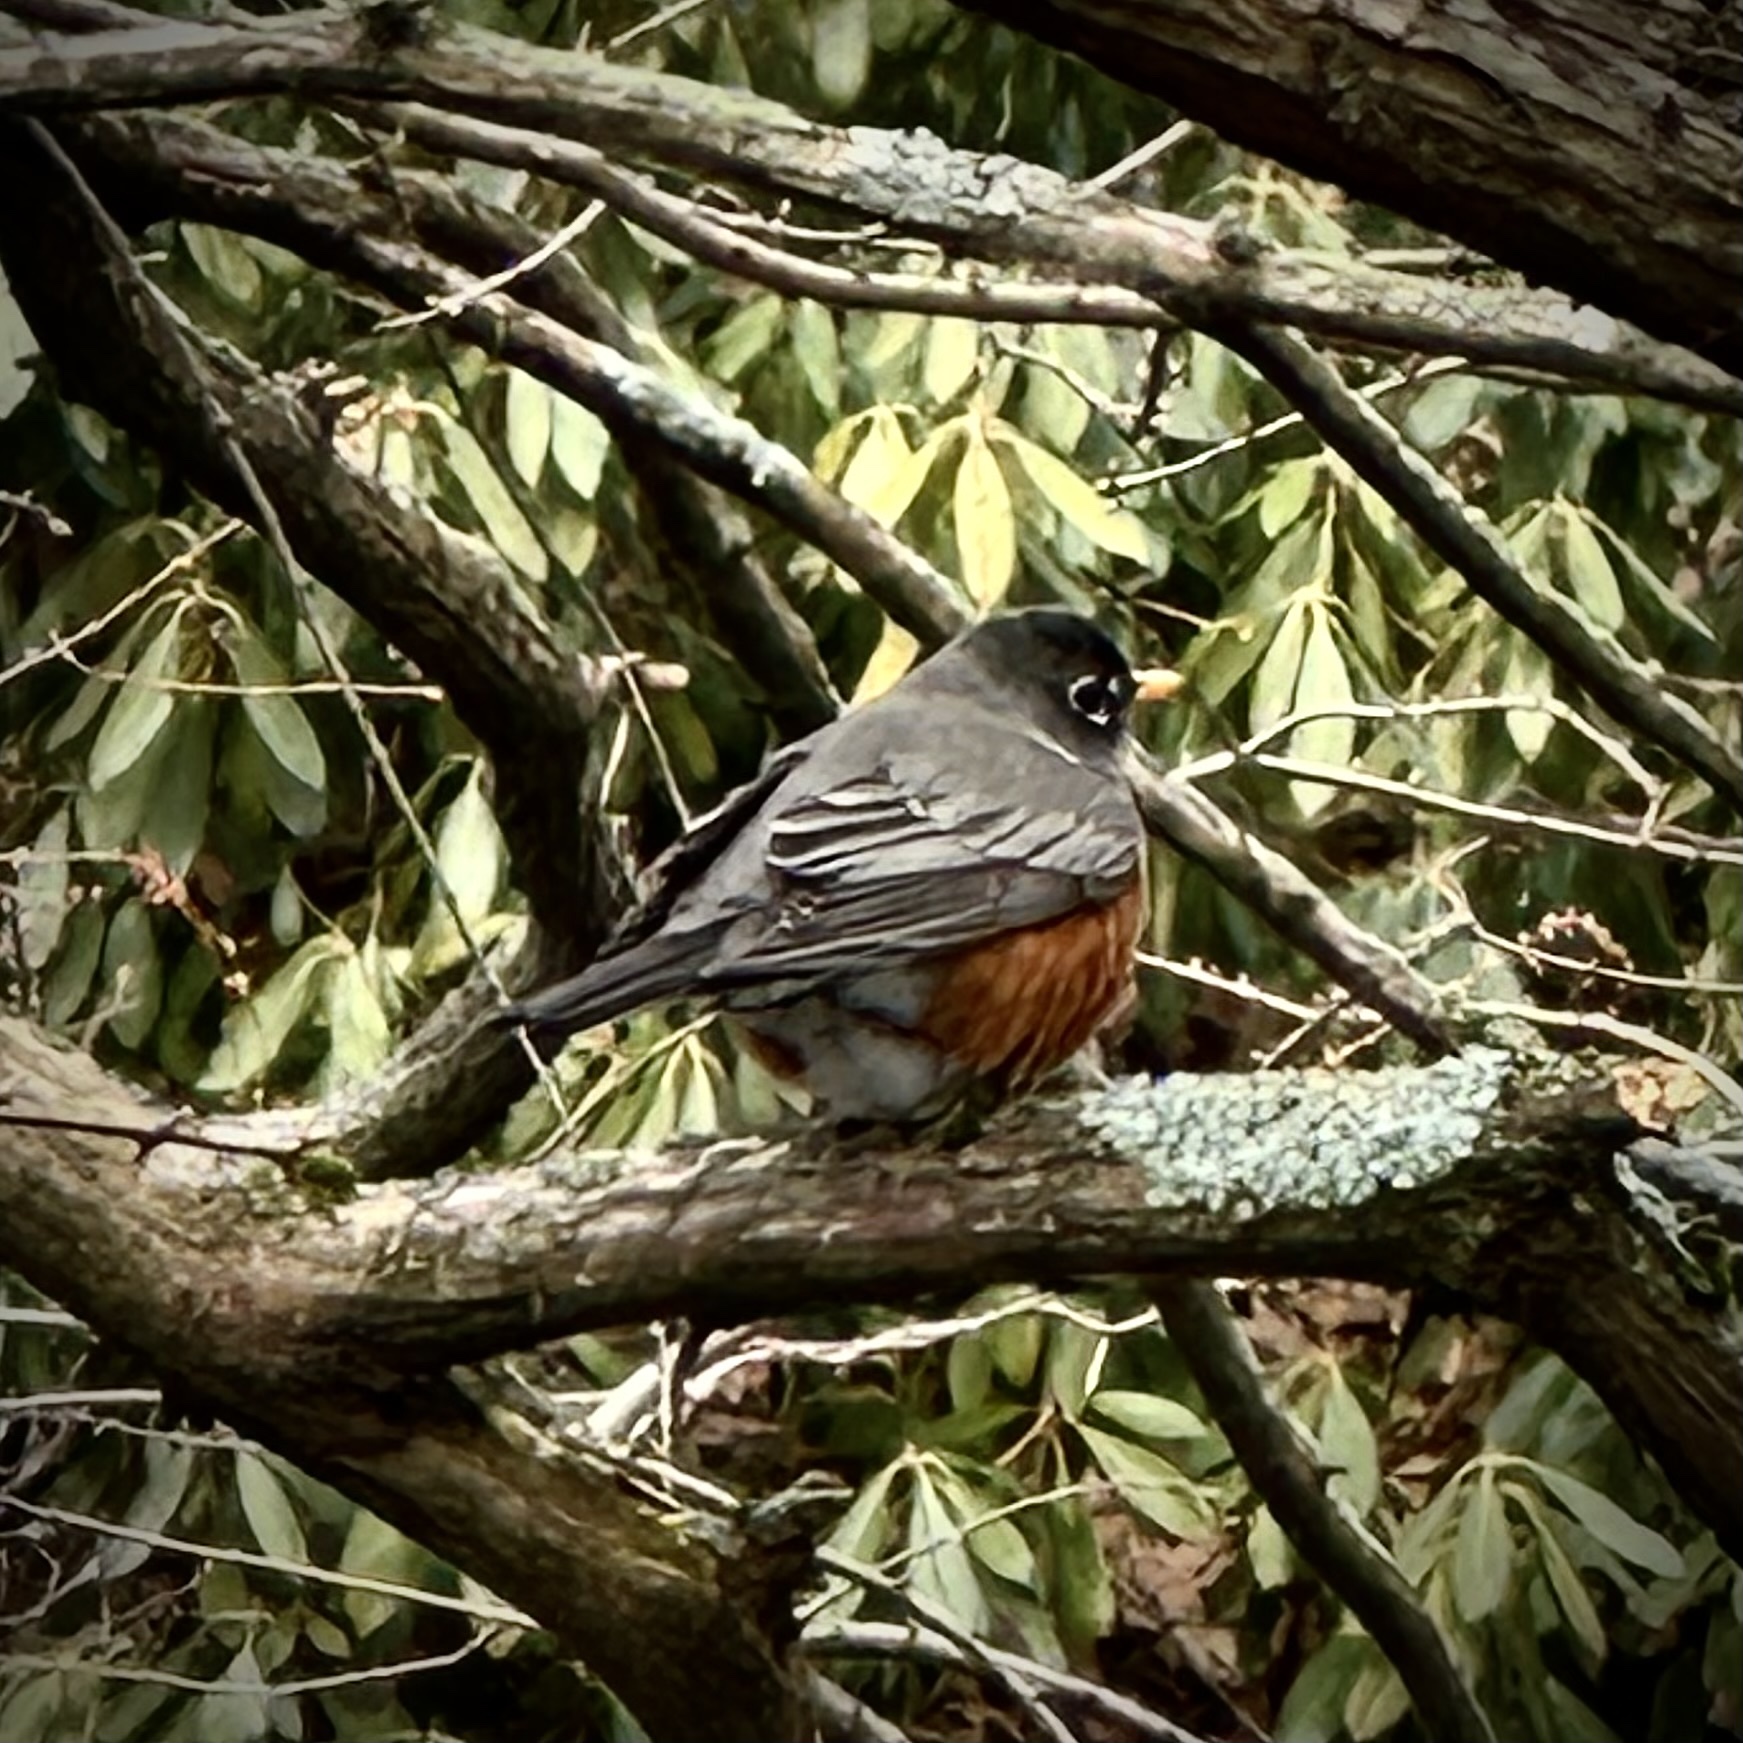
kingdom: Animalia
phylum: Chordata
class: Aves
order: Passeriformes
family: Turdidae
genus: Turdus
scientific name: Turdus migratorius
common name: American robin
